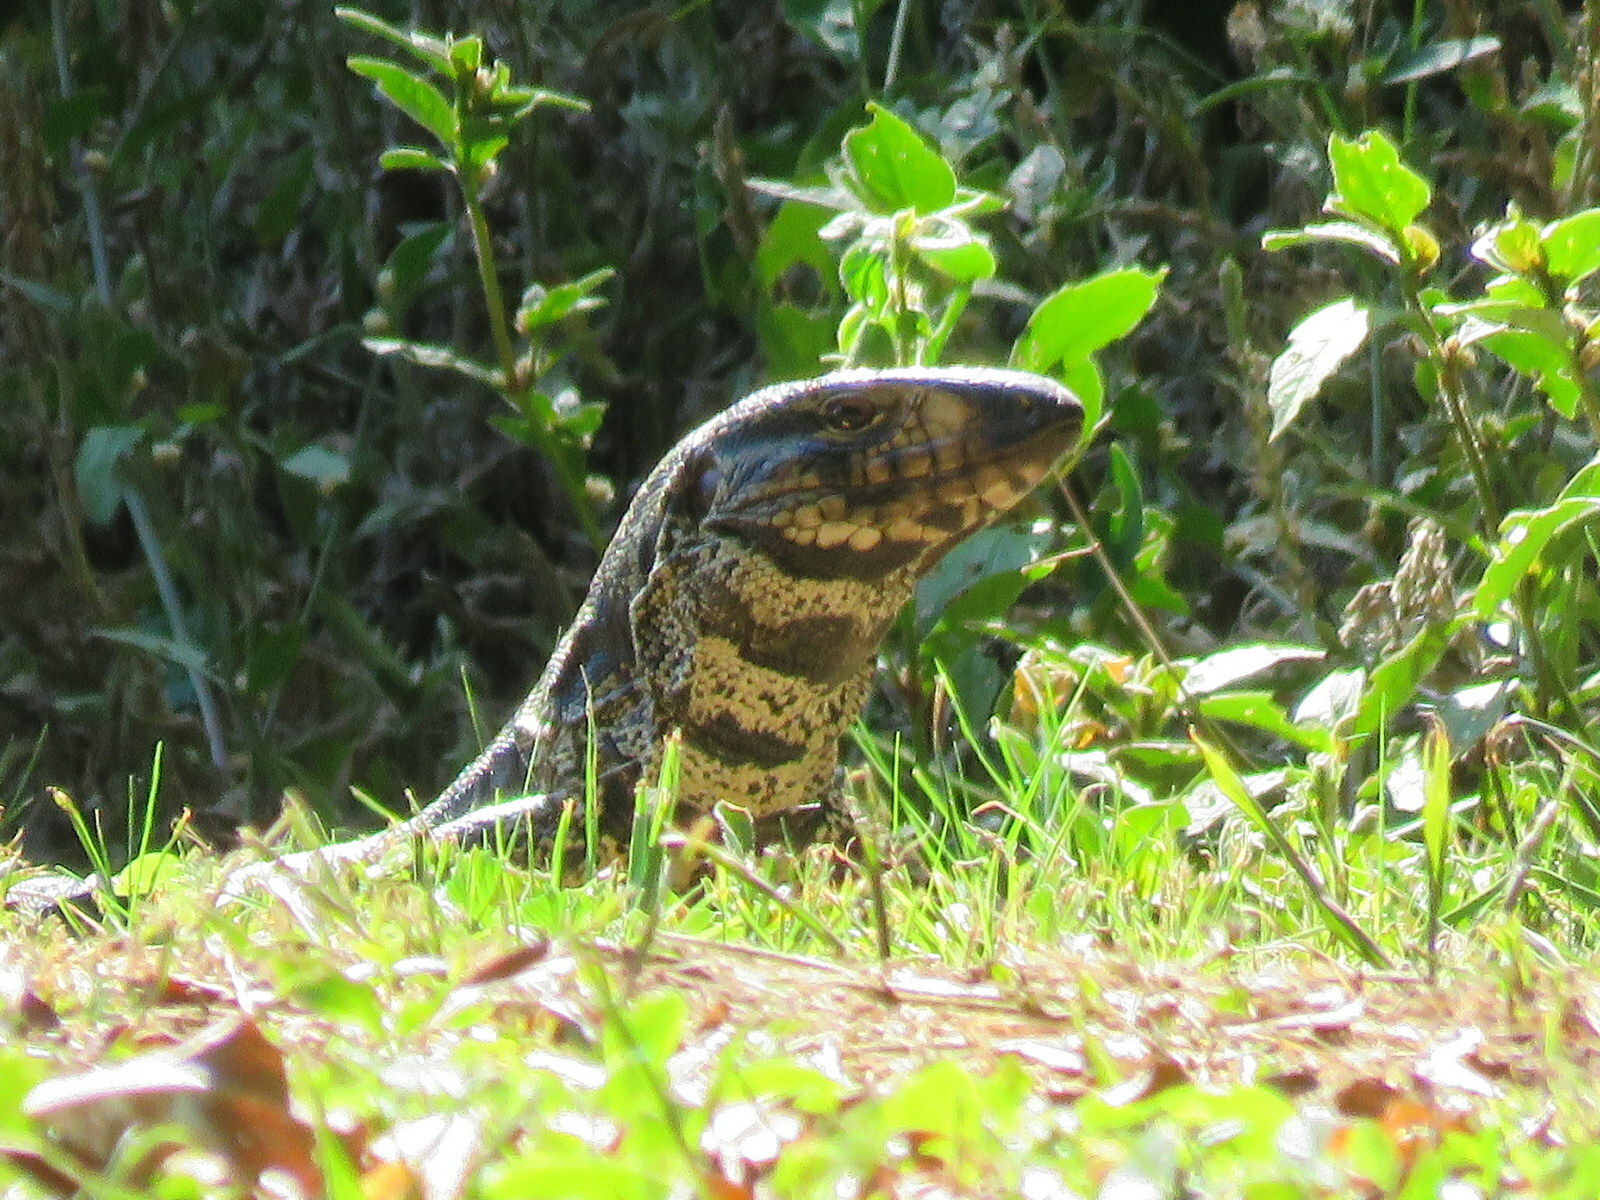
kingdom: Animalia
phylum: Chordata
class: Squamata
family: Teiidae
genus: Salvator
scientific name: Salvator merianae
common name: Argentine black and white tegu
